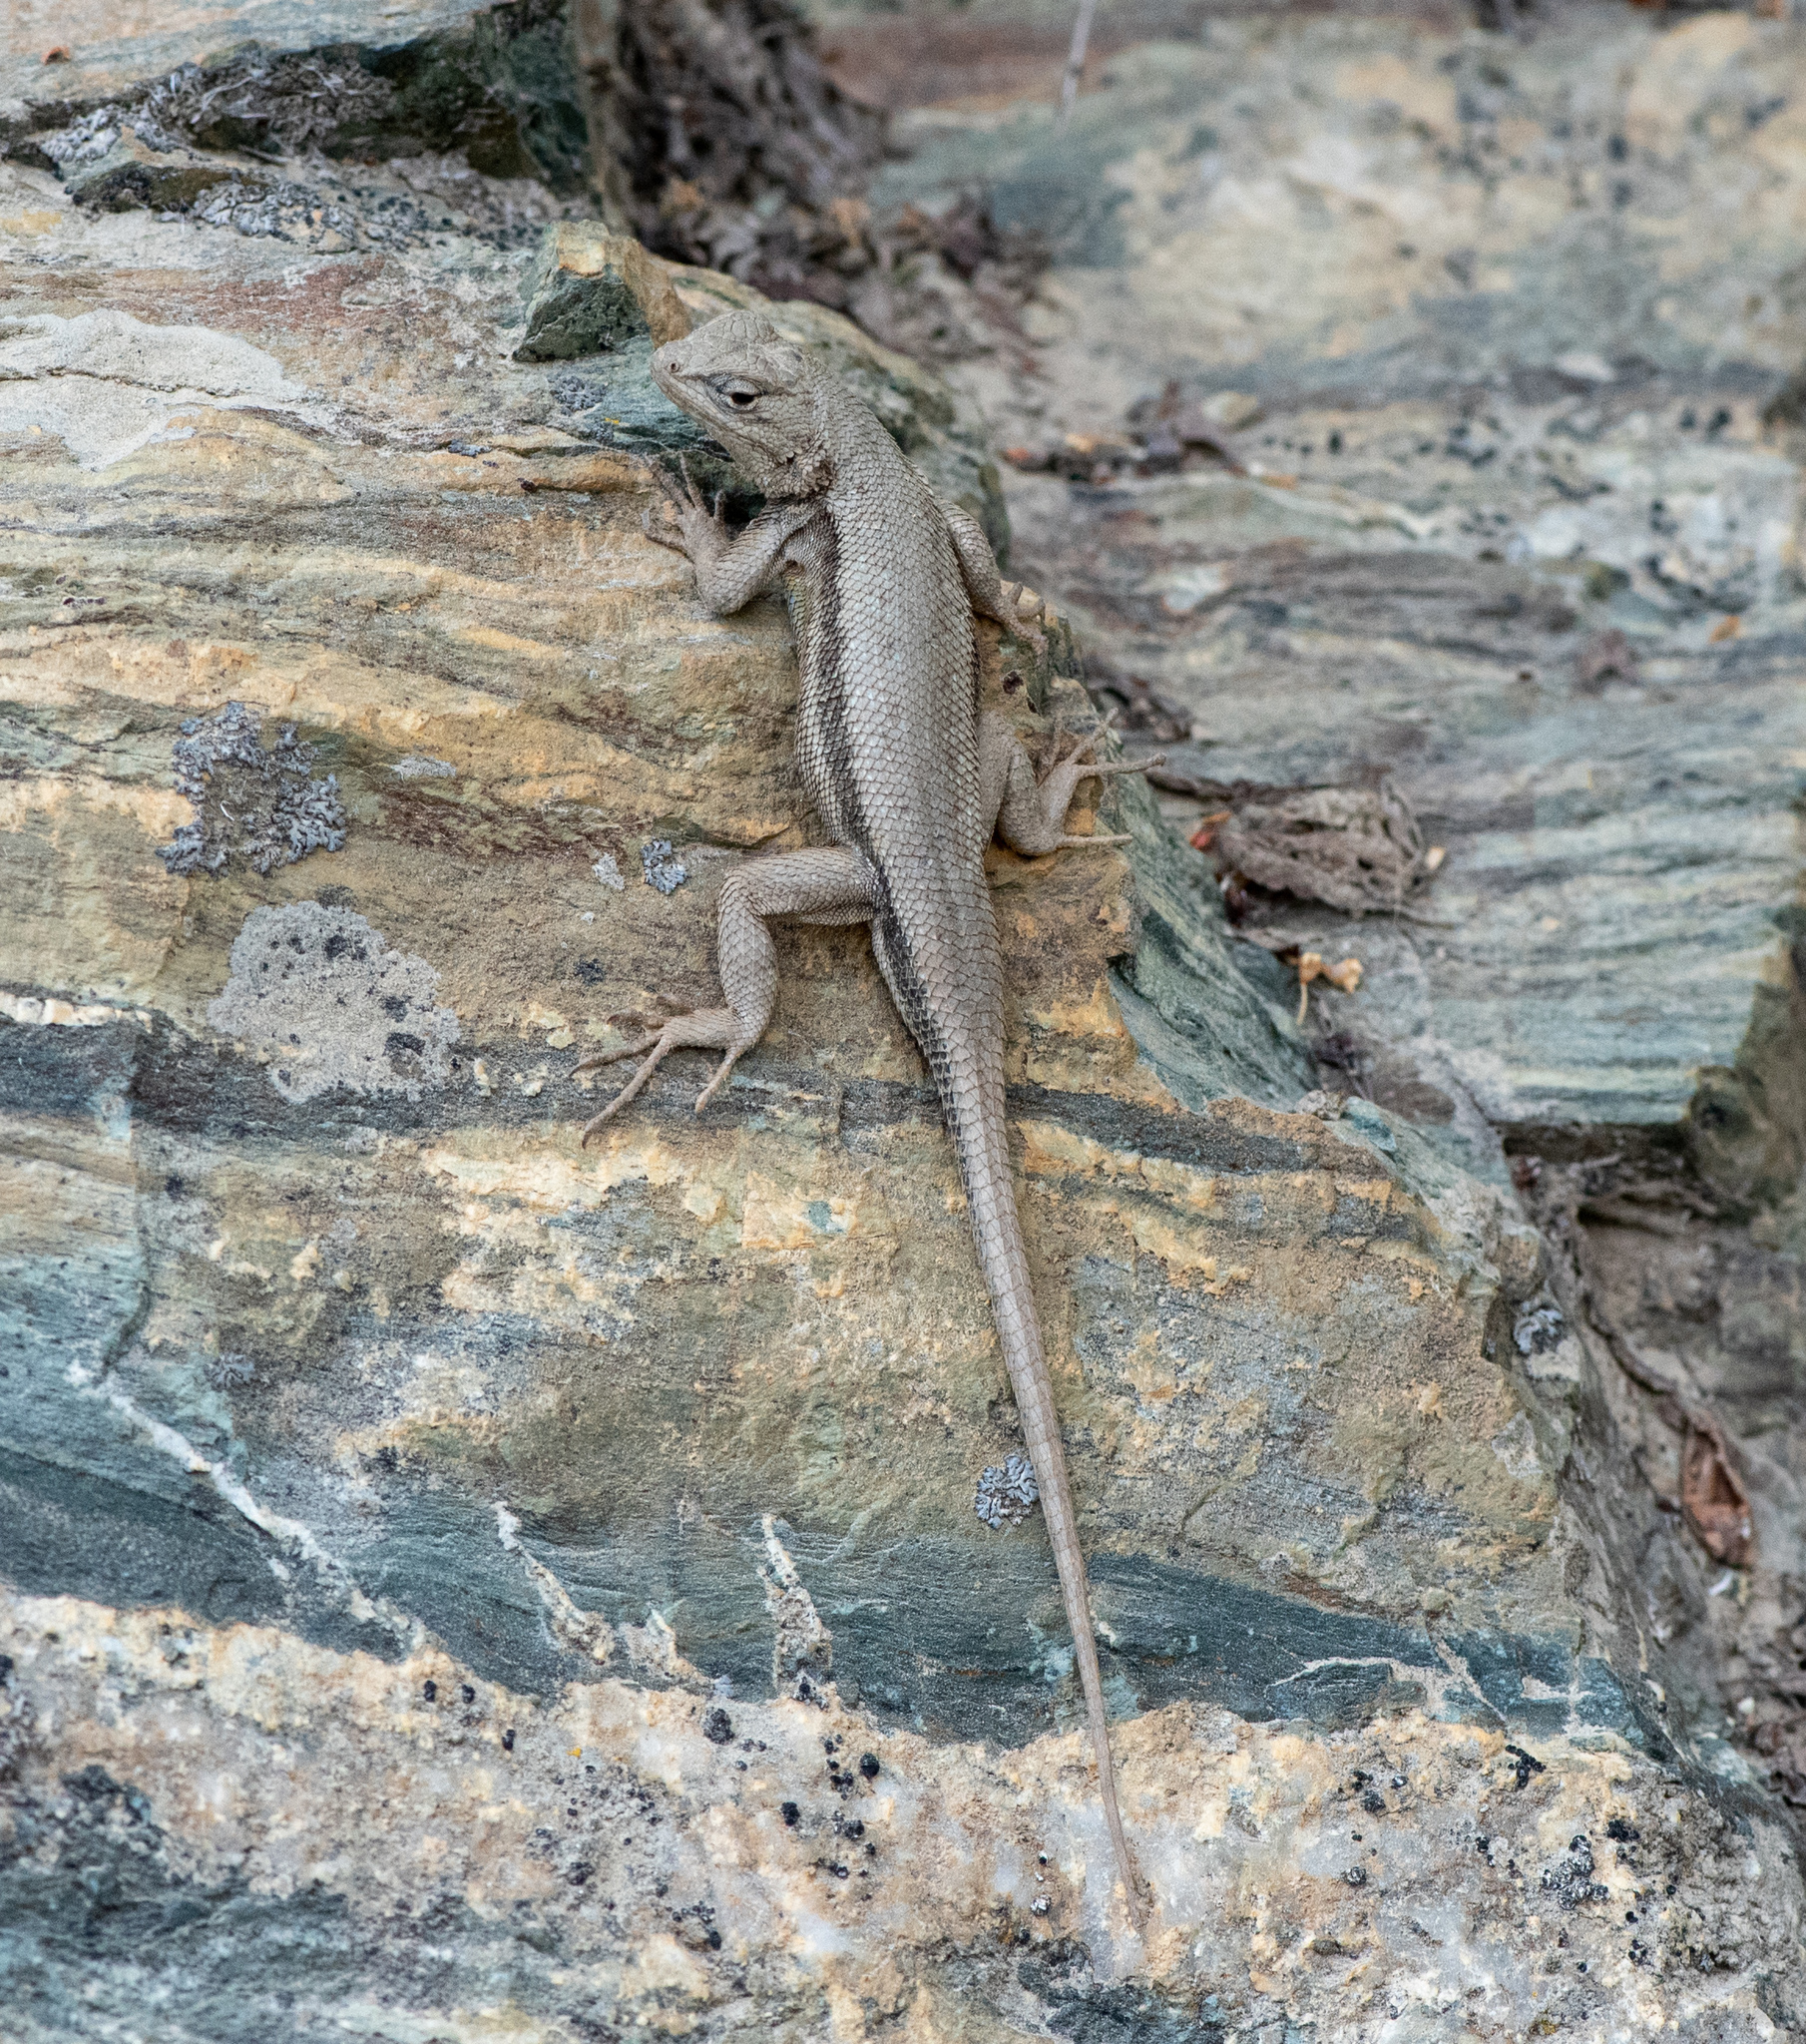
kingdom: Animalia
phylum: Chordata
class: Squamata
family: Phrynosomatidae
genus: Sceloporus
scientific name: Sceloporus graciosus
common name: Sagebrush lizard
